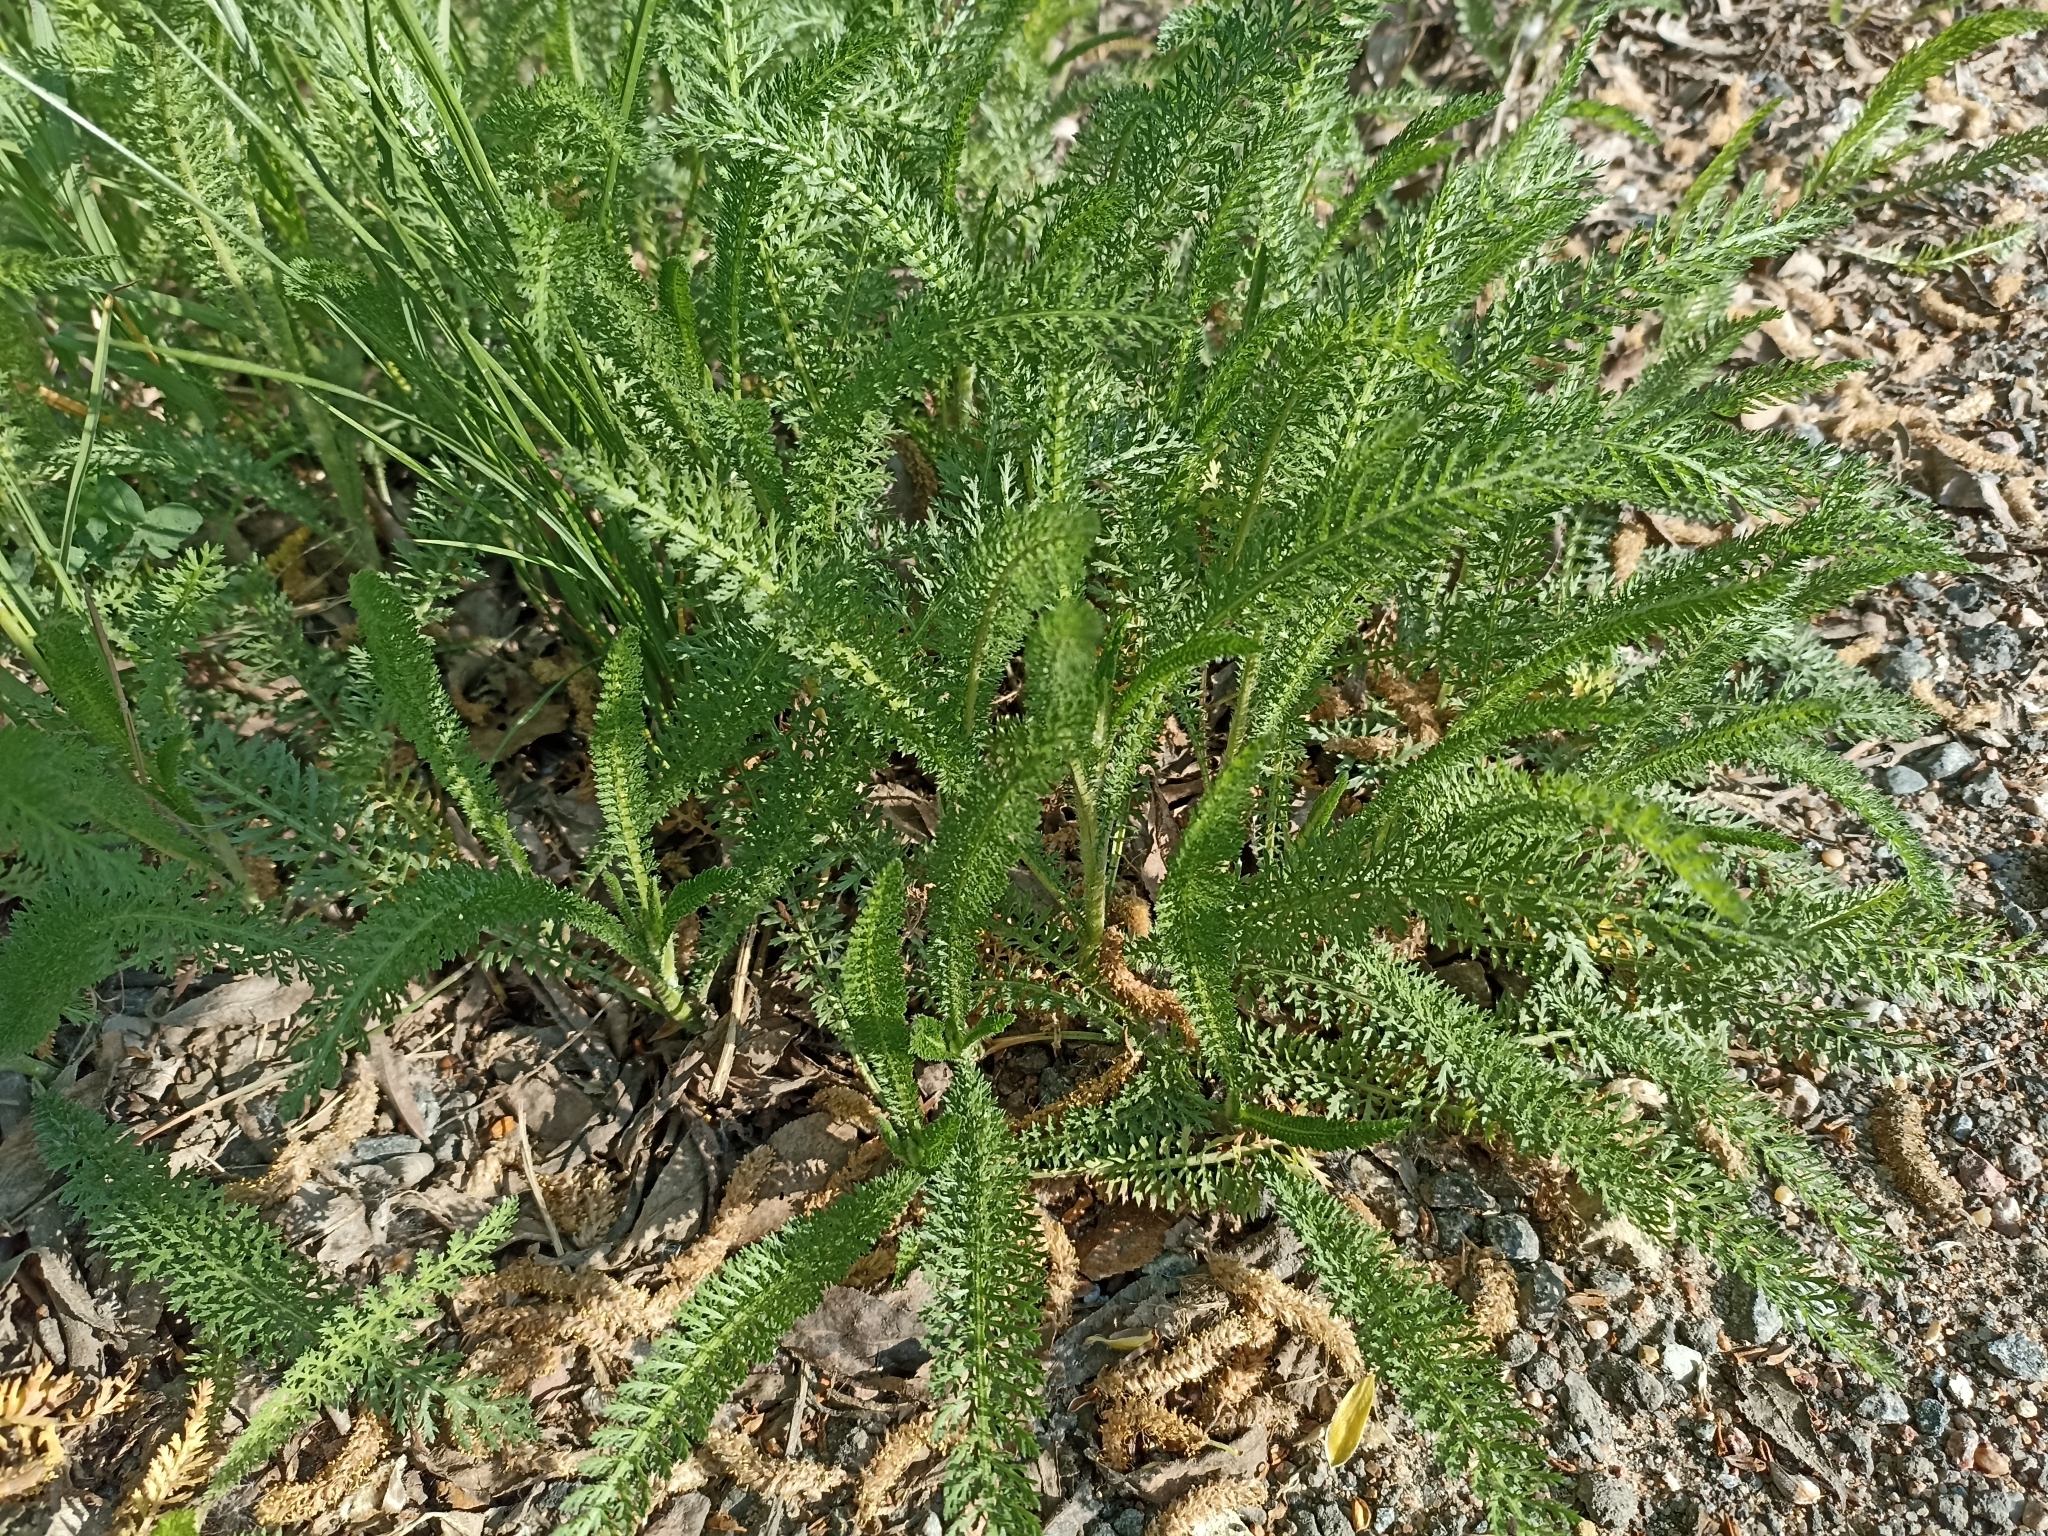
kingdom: Plantae
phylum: Tracheophyta
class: Magnoliopsida
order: Asterales
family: Asteraceae
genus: Achillea
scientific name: Achillea millefolium
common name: Yarrow
